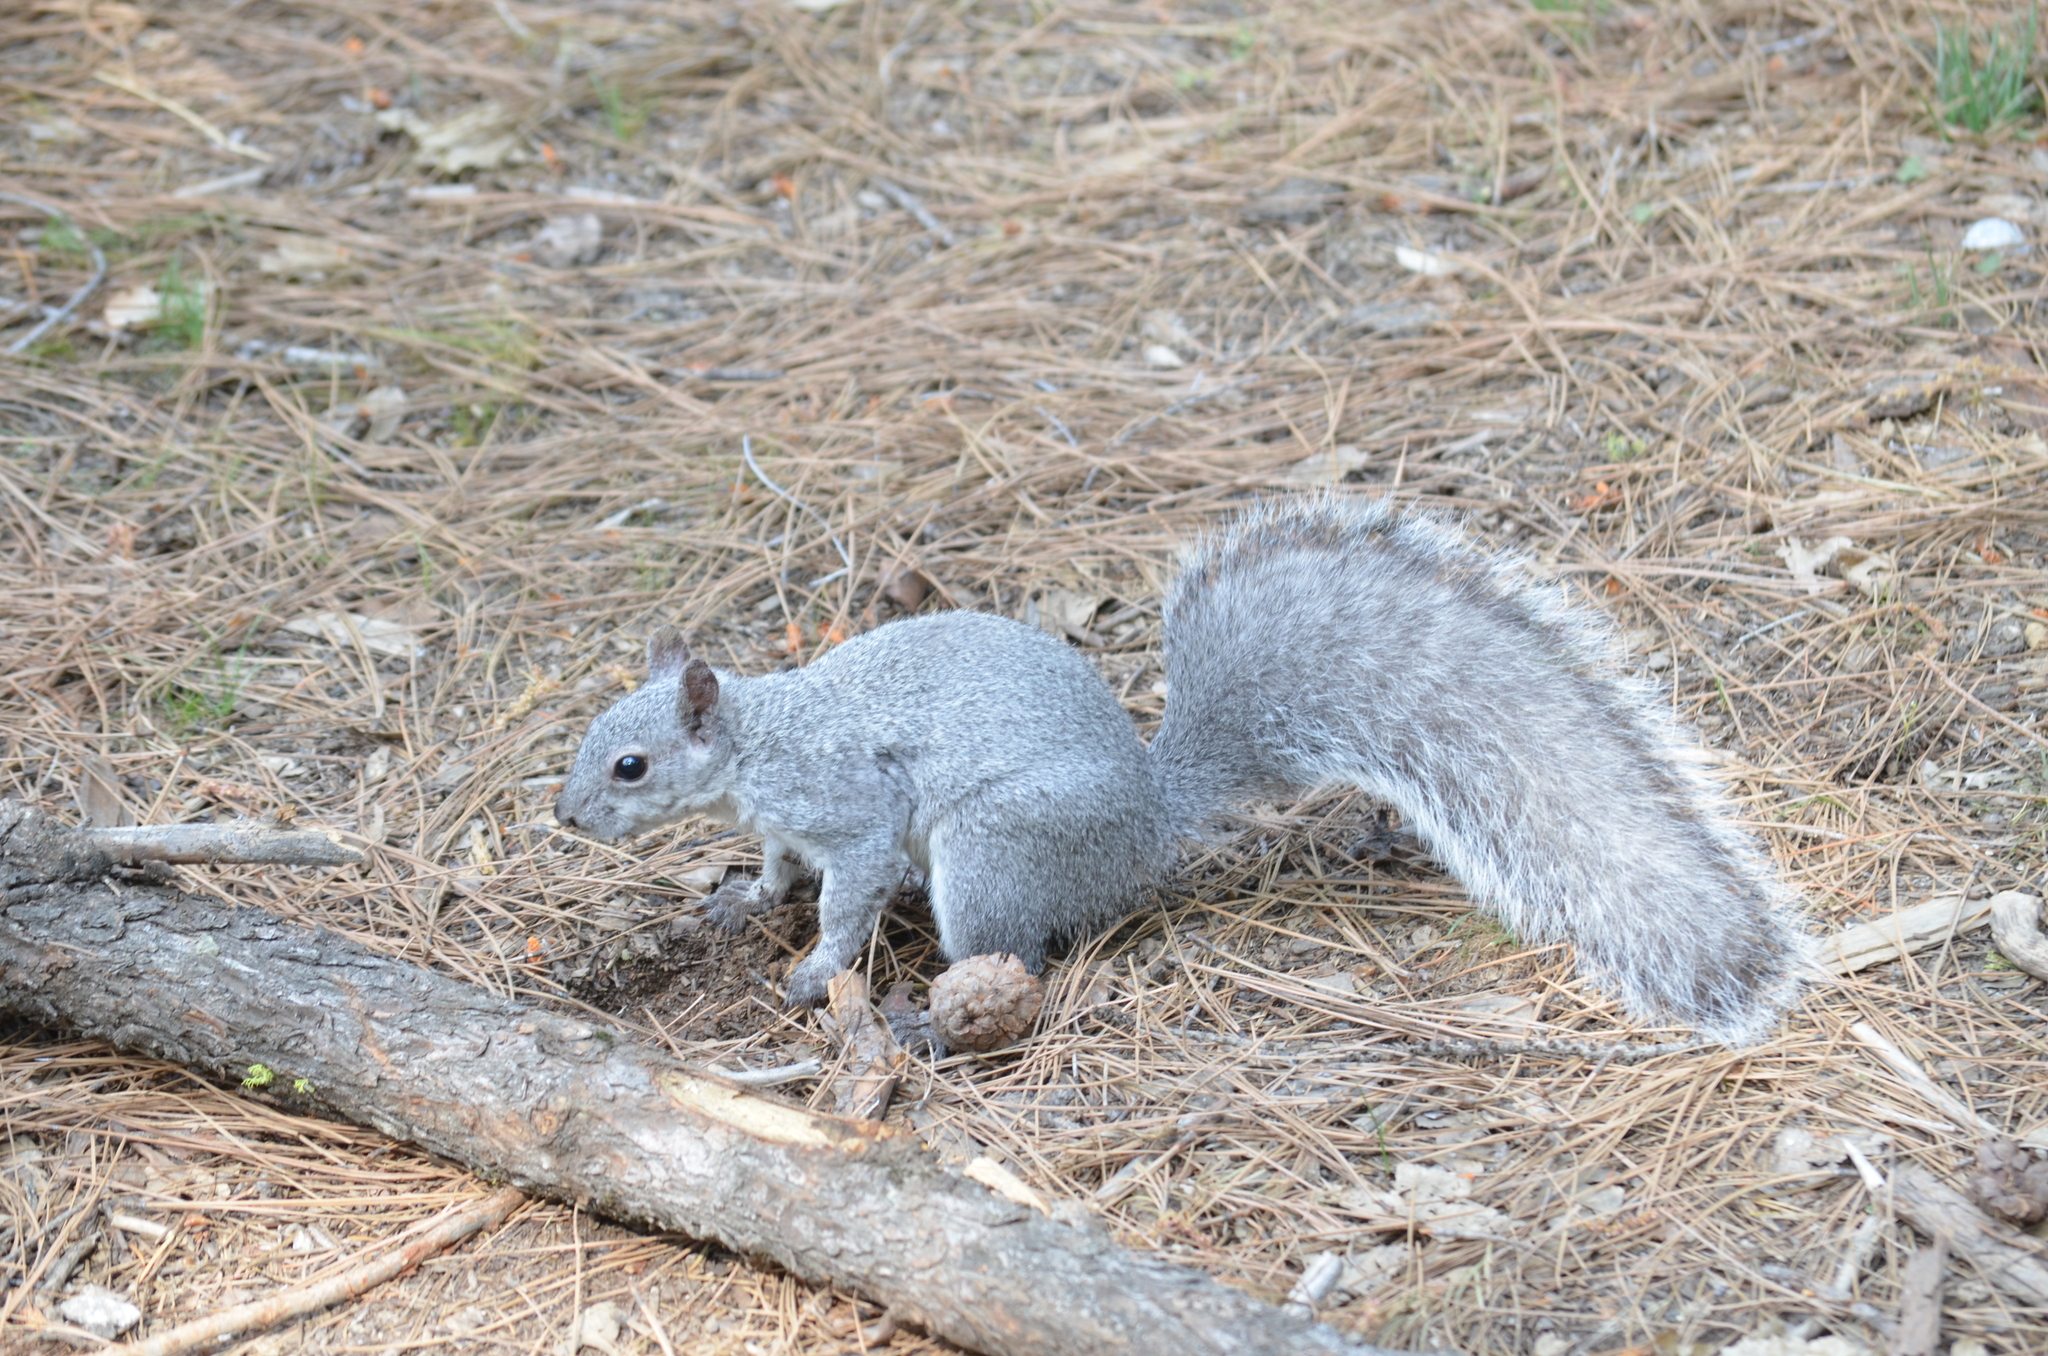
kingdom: Animalia
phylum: Chordata
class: Mammalia
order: Rodentia
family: Sciuridae
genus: Sciurus
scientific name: Sciurus griseus
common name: Western gray squirrel
